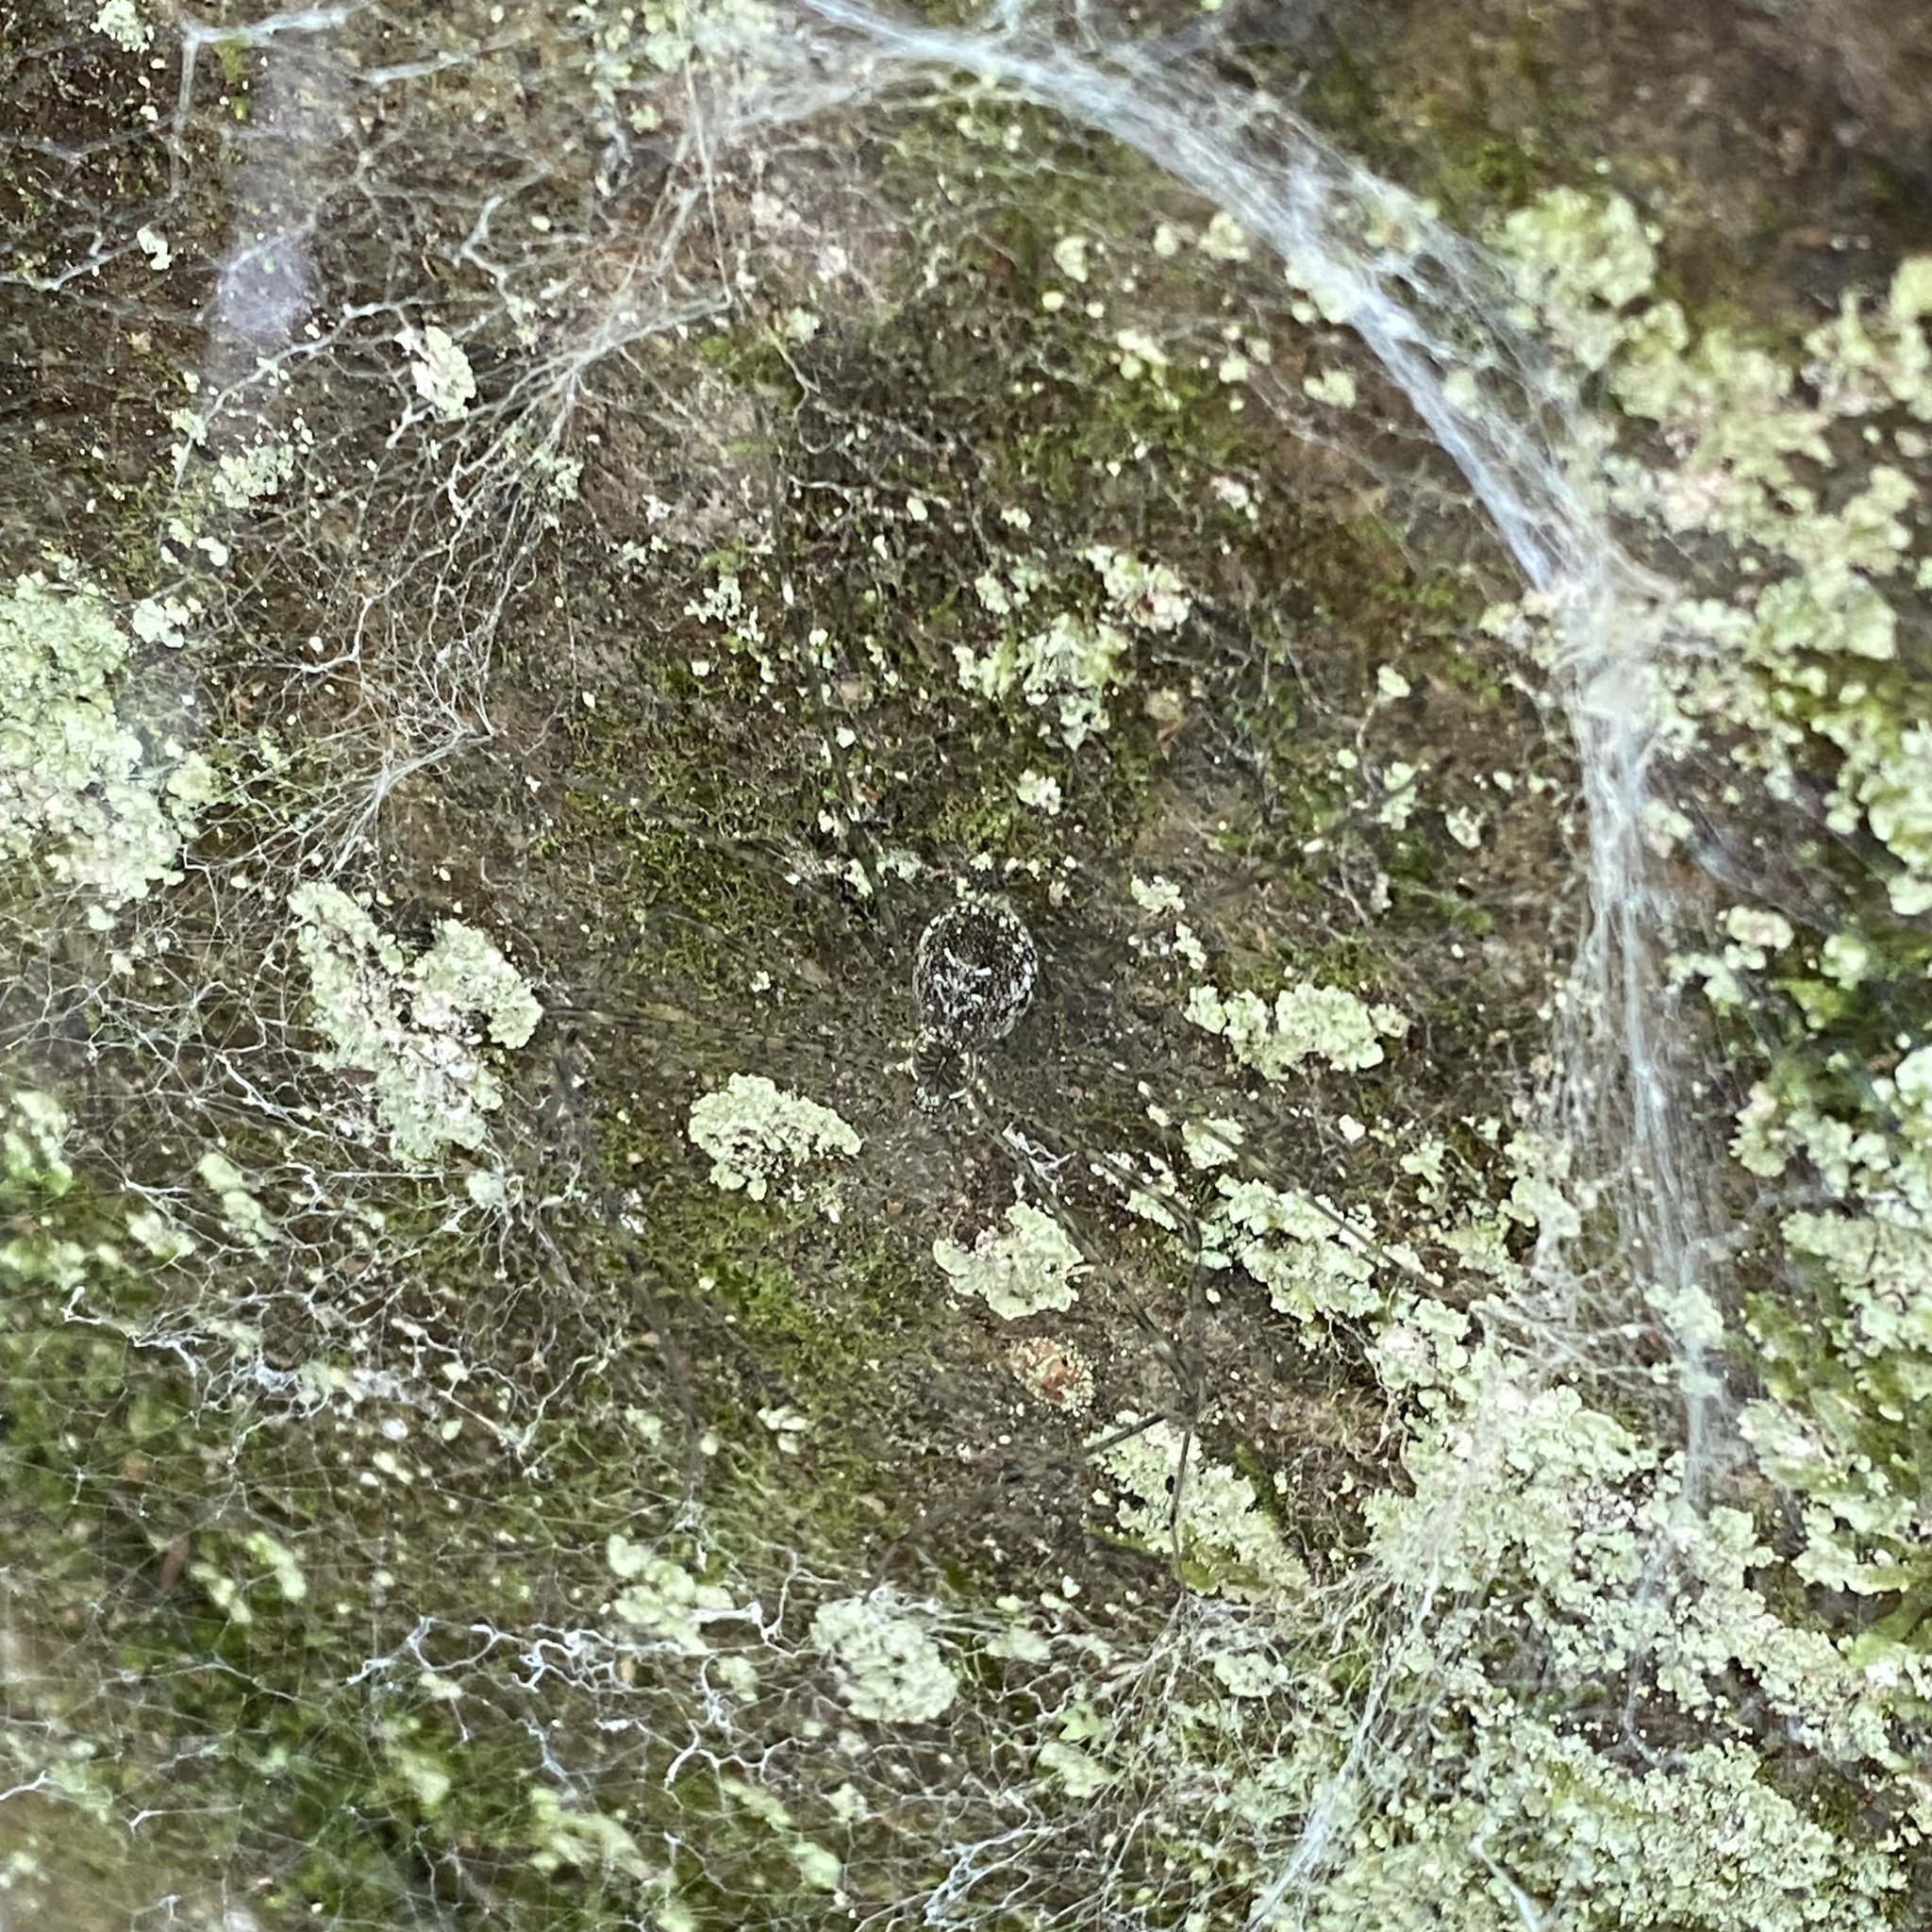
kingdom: Animalia
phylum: Arthropoda
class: Arachnida
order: Araneae
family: Hypochilidae
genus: Hypochilus
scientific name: Hypochilus pococki
